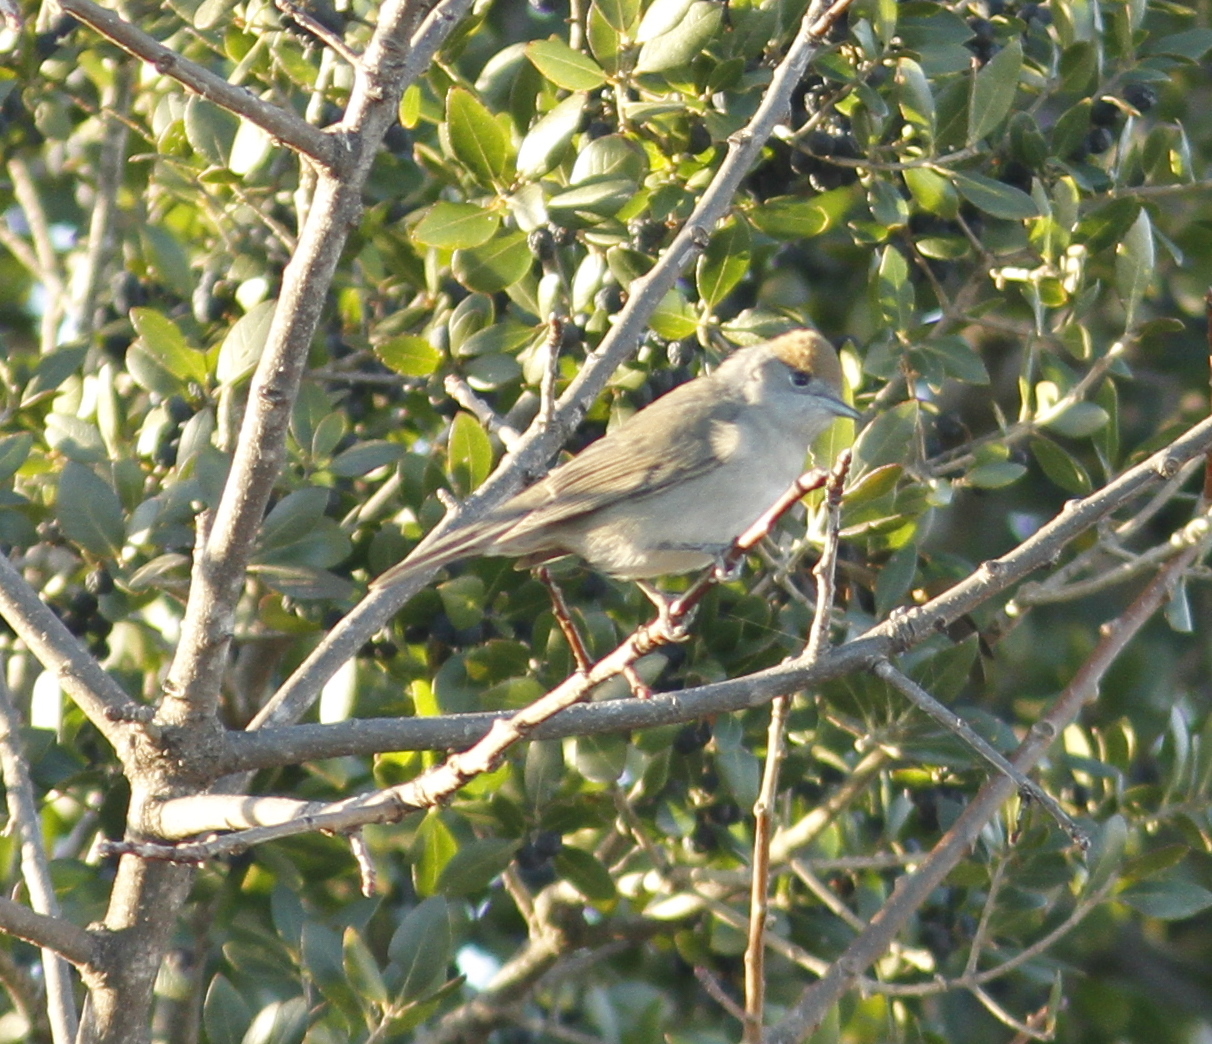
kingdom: Animalia
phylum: Chordata
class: Aves
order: Passeriformes
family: Sylviidae
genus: Sylvia
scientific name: Sylvia atricapilla
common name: Eurasian blackcap
